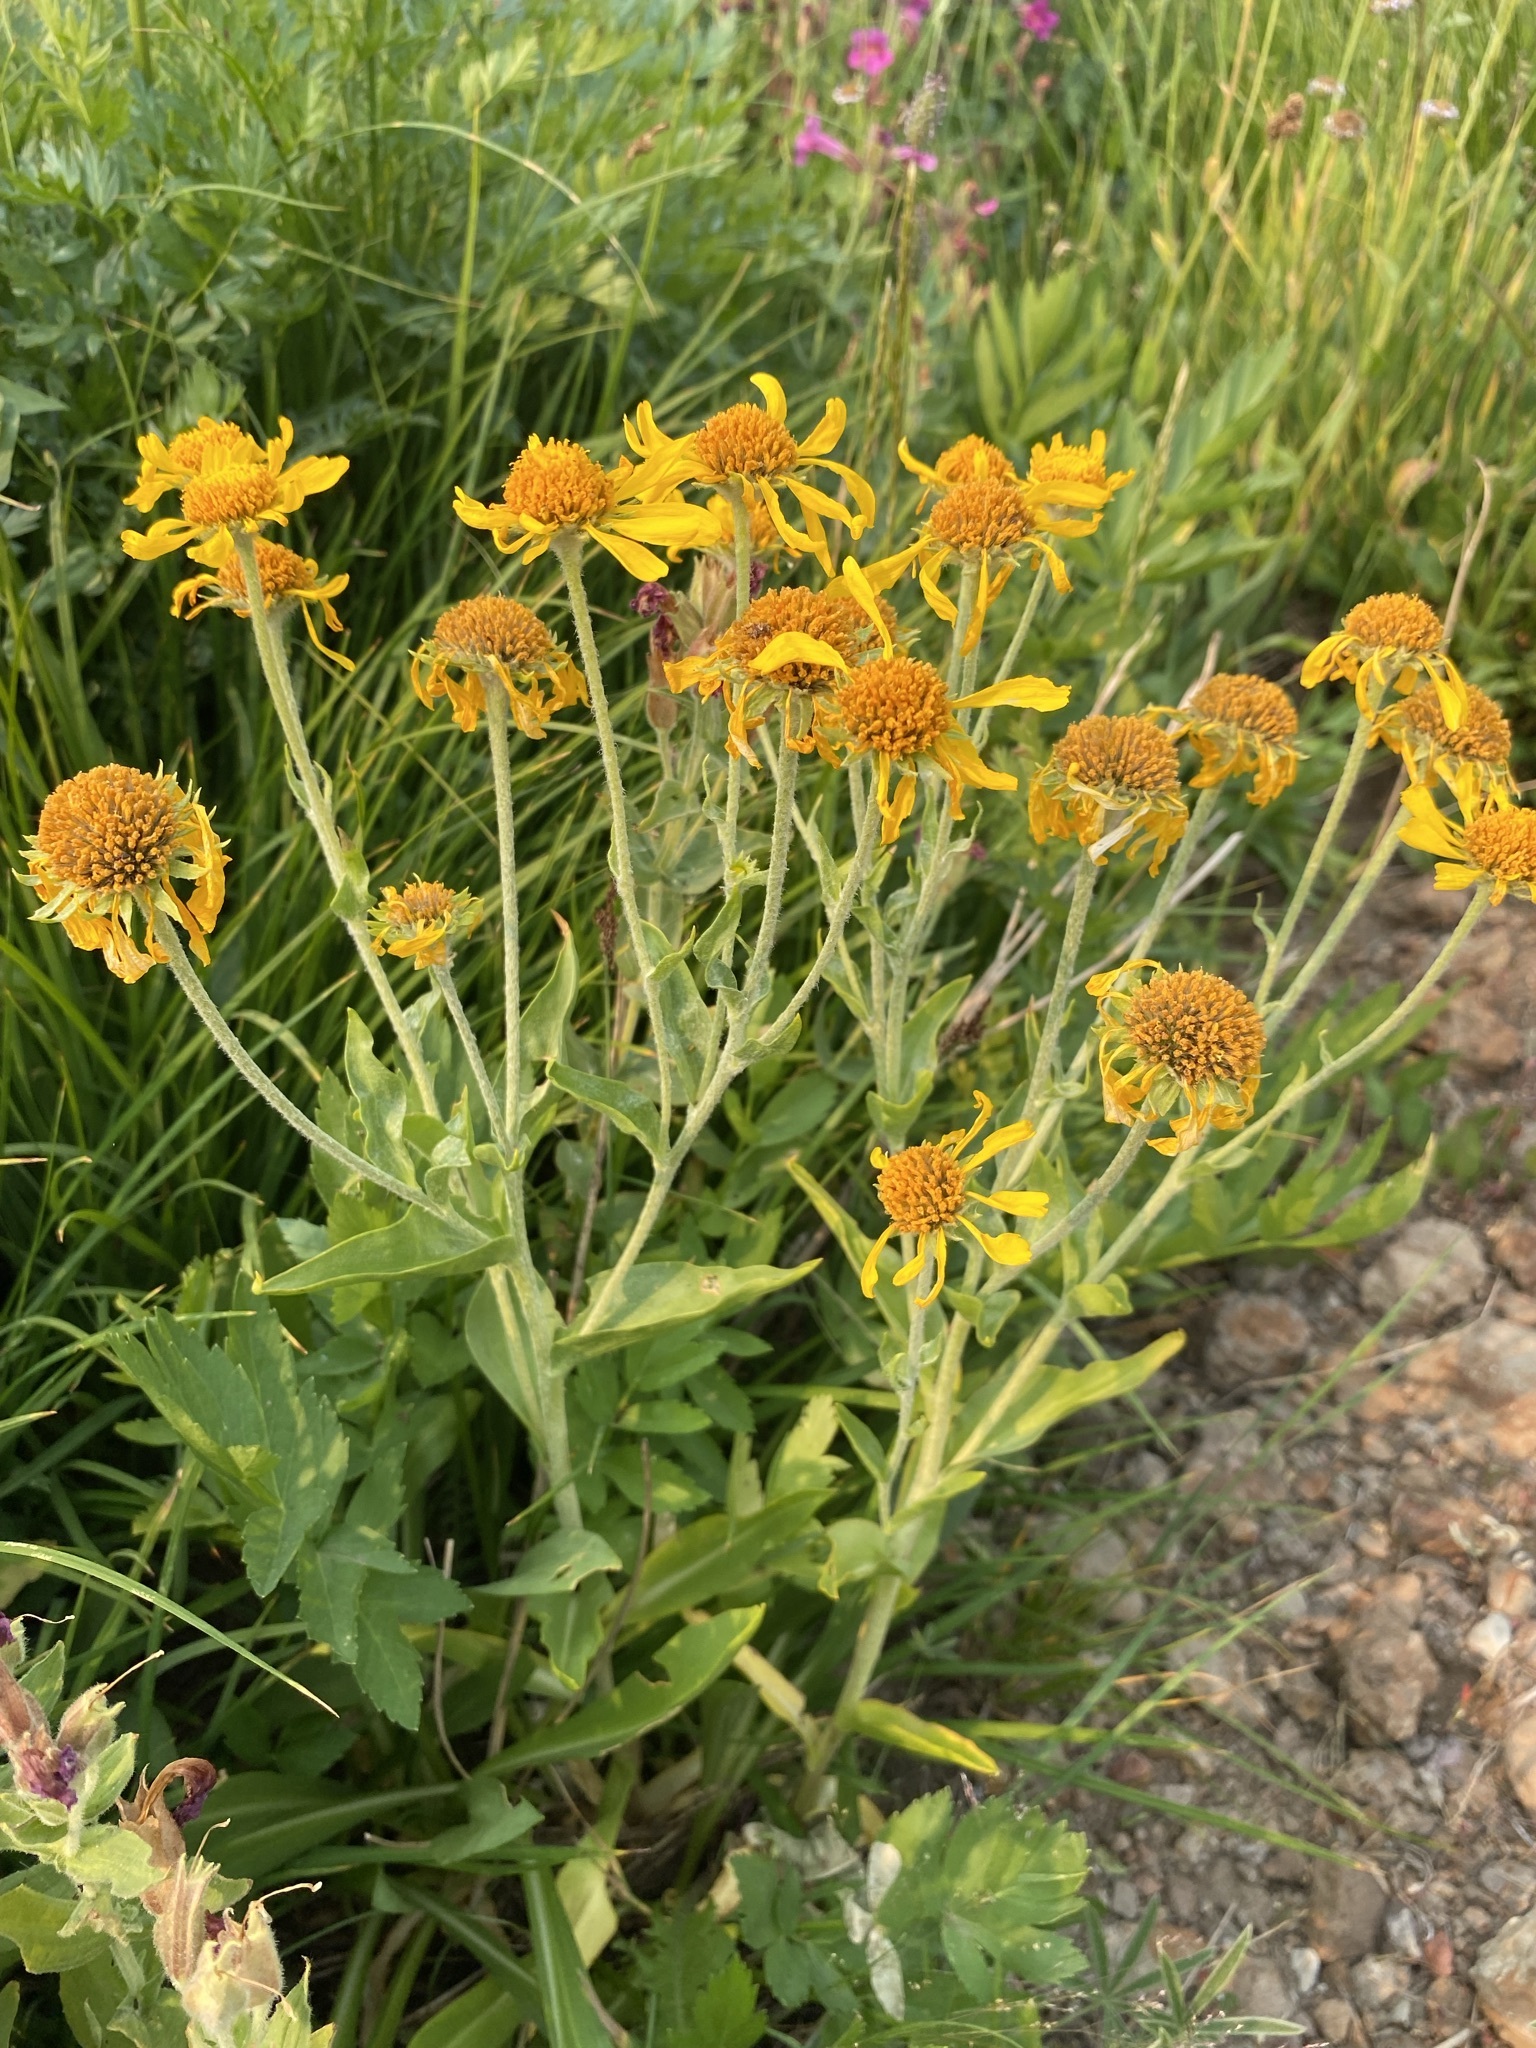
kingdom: Plantae
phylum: Tracheophyta
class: Magnoliopsida
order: Asterales
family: Asteraceae
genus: Hymenoxys
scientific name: Hymenoxys hoopesii
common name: Orange-sneezeweed
